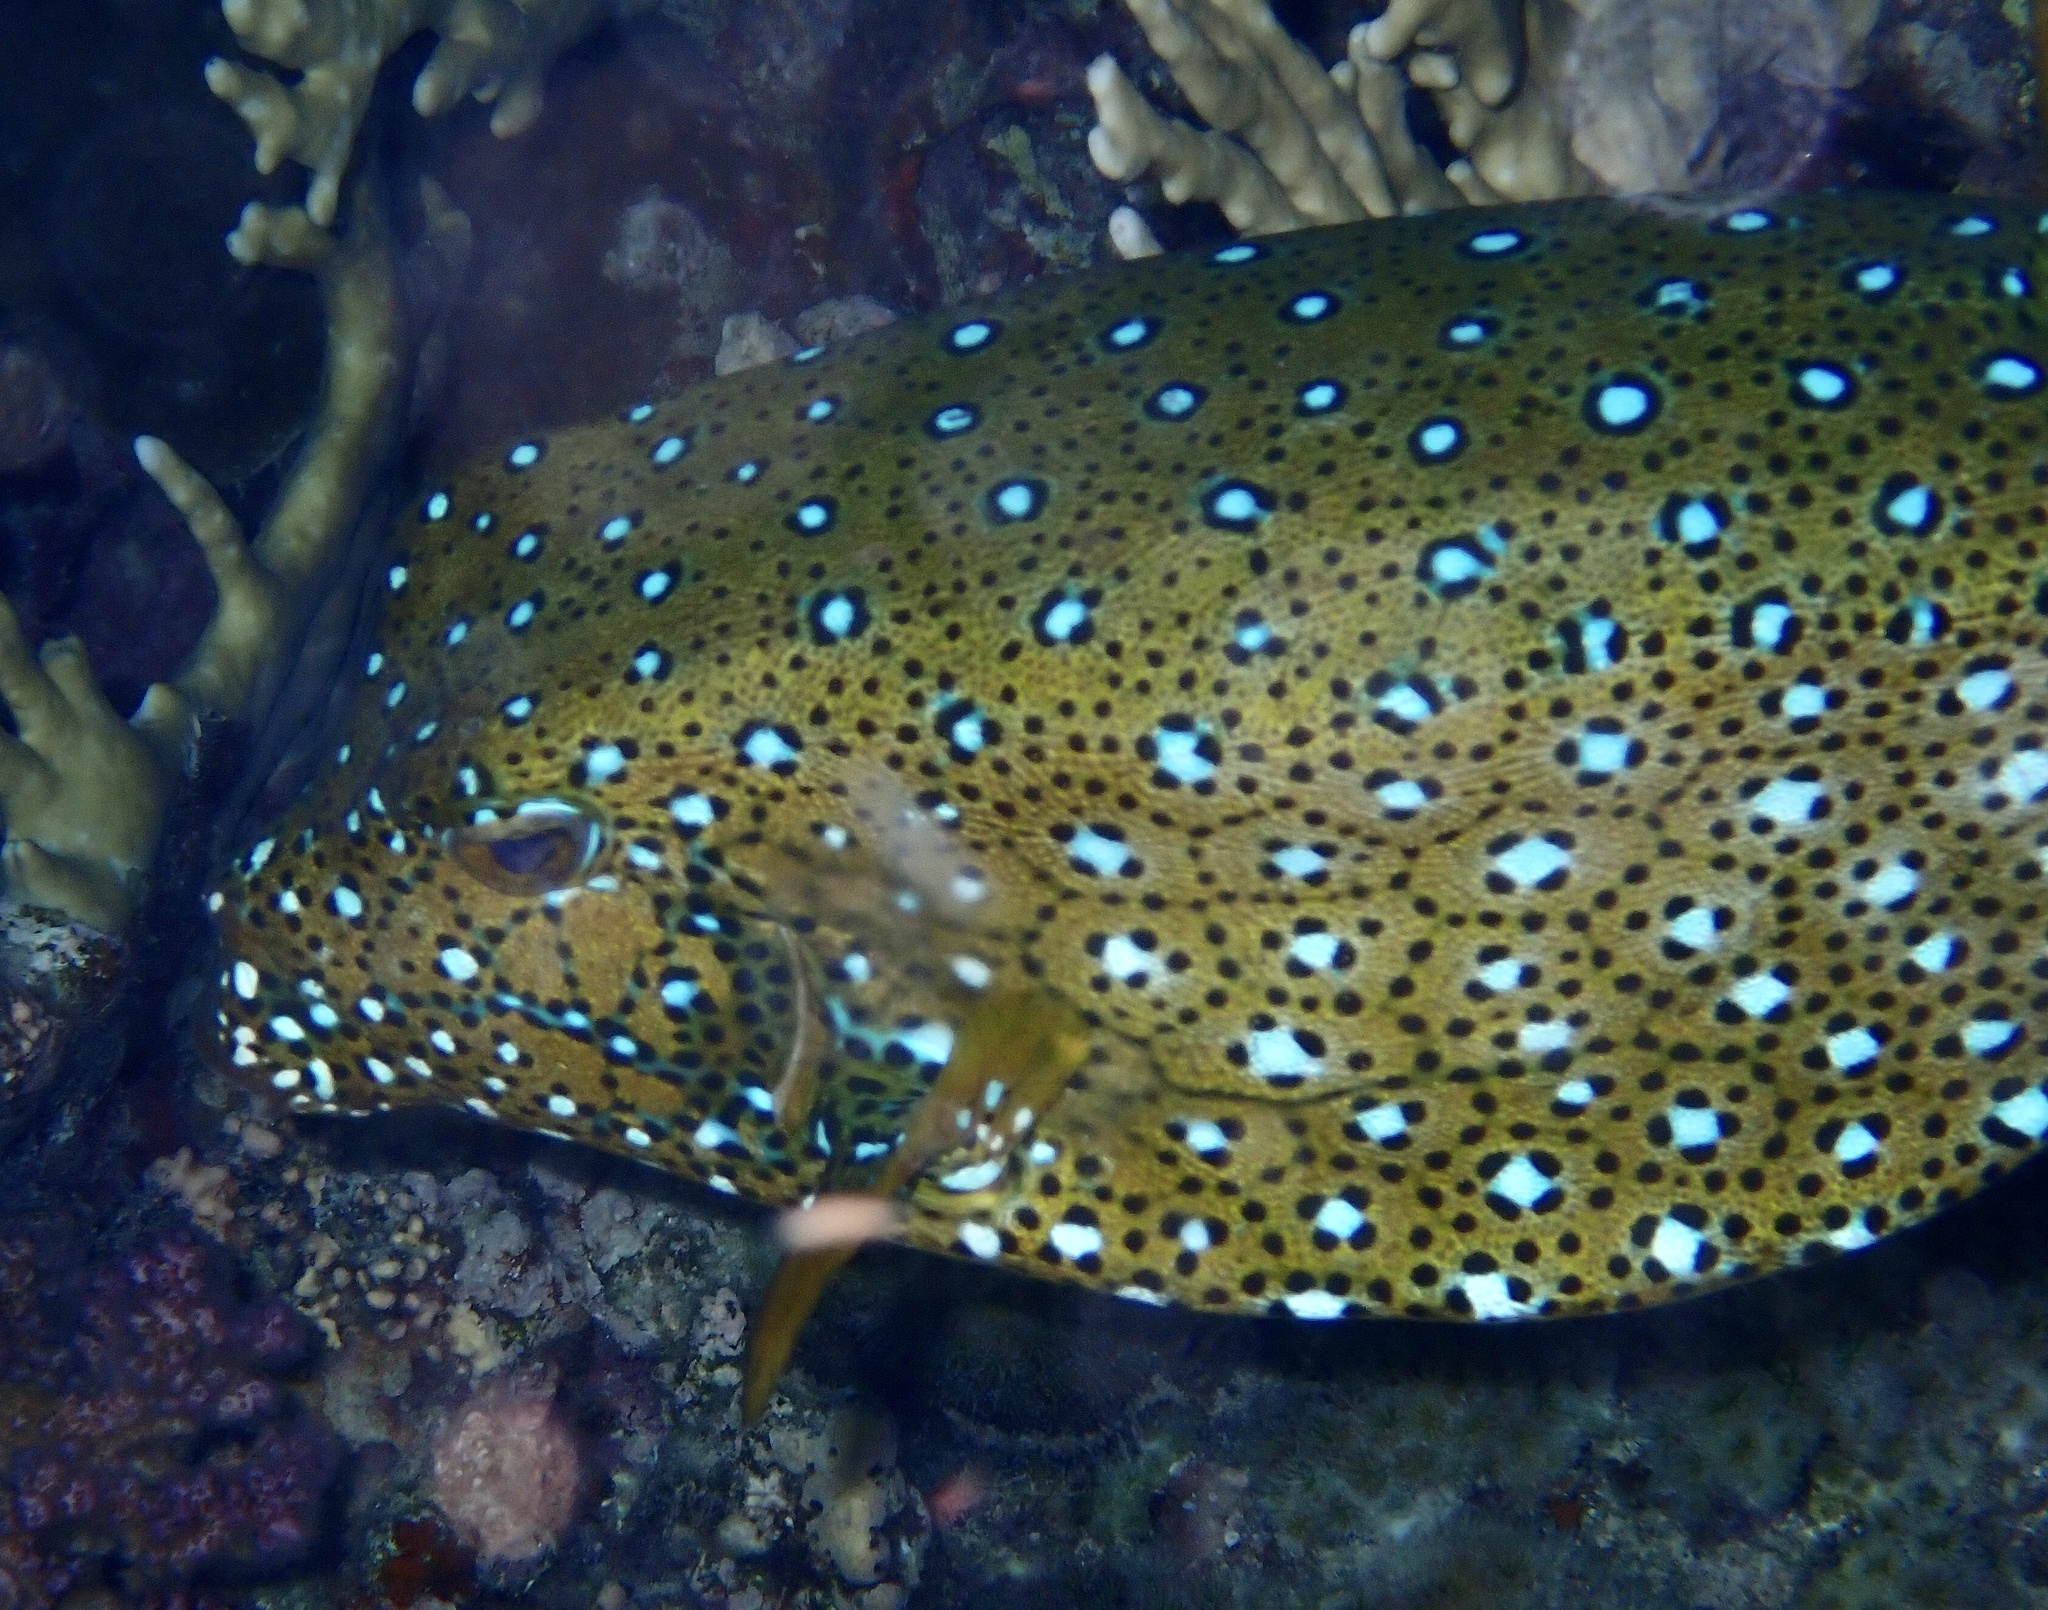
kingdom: Animalia
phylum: Chordata
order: Tetraodontiformes
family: Ostraciidae
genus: Ostracion
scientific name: Ostracion cubicus
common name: Cube trunkfish
